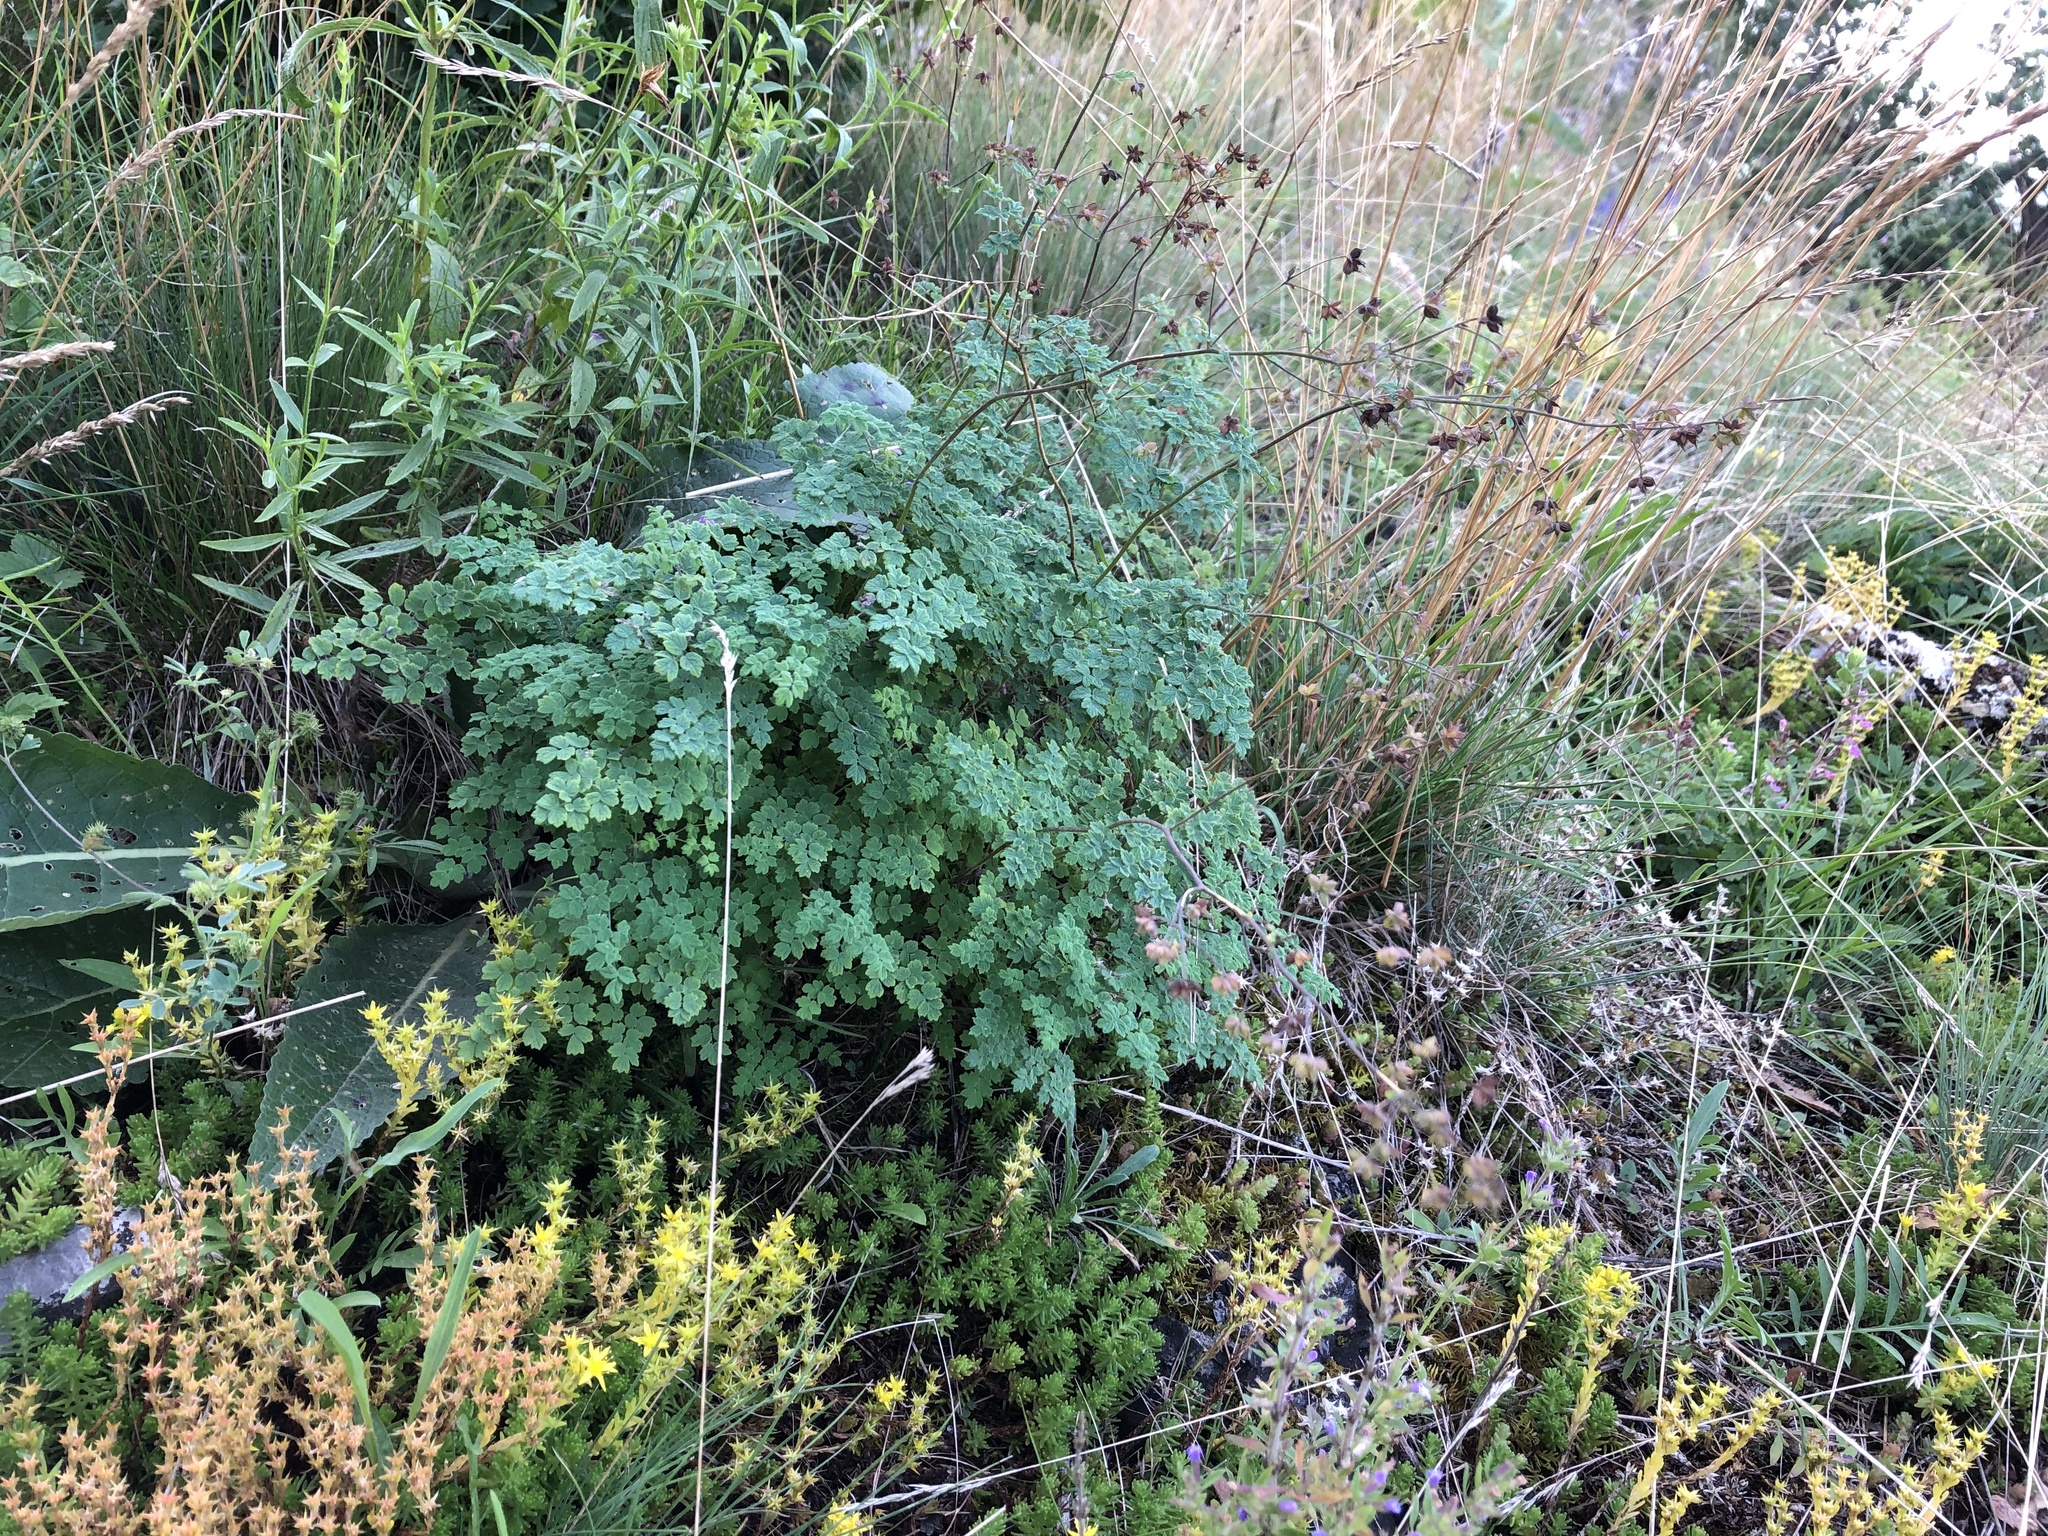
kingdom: Plantae
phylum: Tracheophyta
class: Magnoliopsida
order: Ranunculales
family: Ranunculaceae
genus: Thalictrum
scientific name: Thalictrum foetidum
